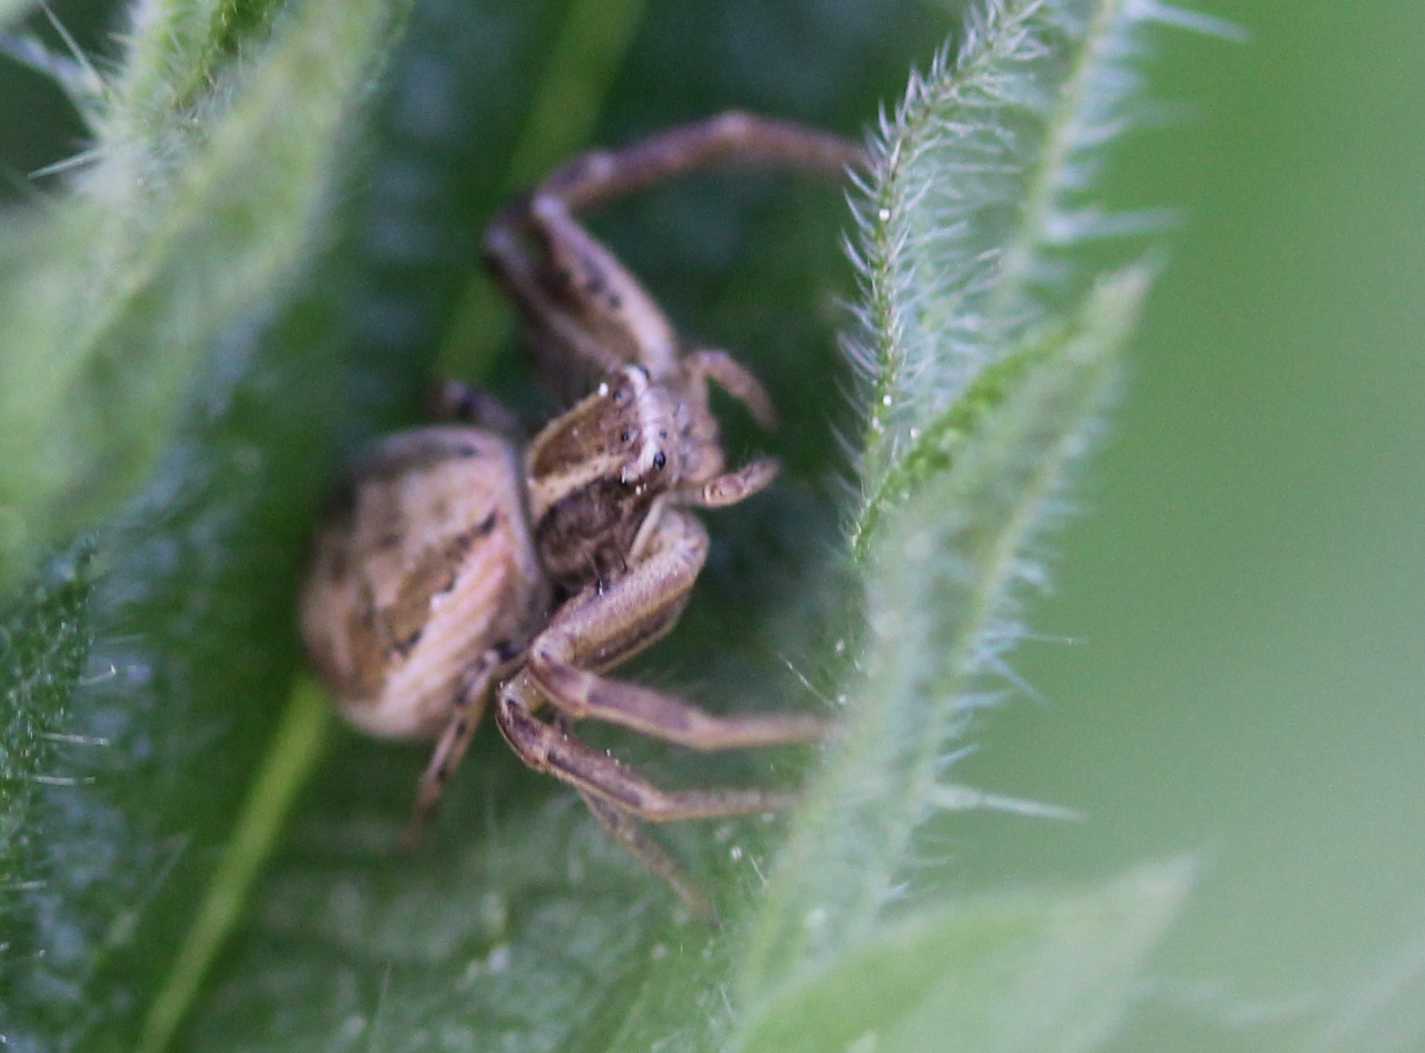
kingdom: Animalia
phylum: Arthropoda
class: Arachnida
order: Araneae
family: Thomisidae
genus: Xysticus
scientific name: Xysticus
